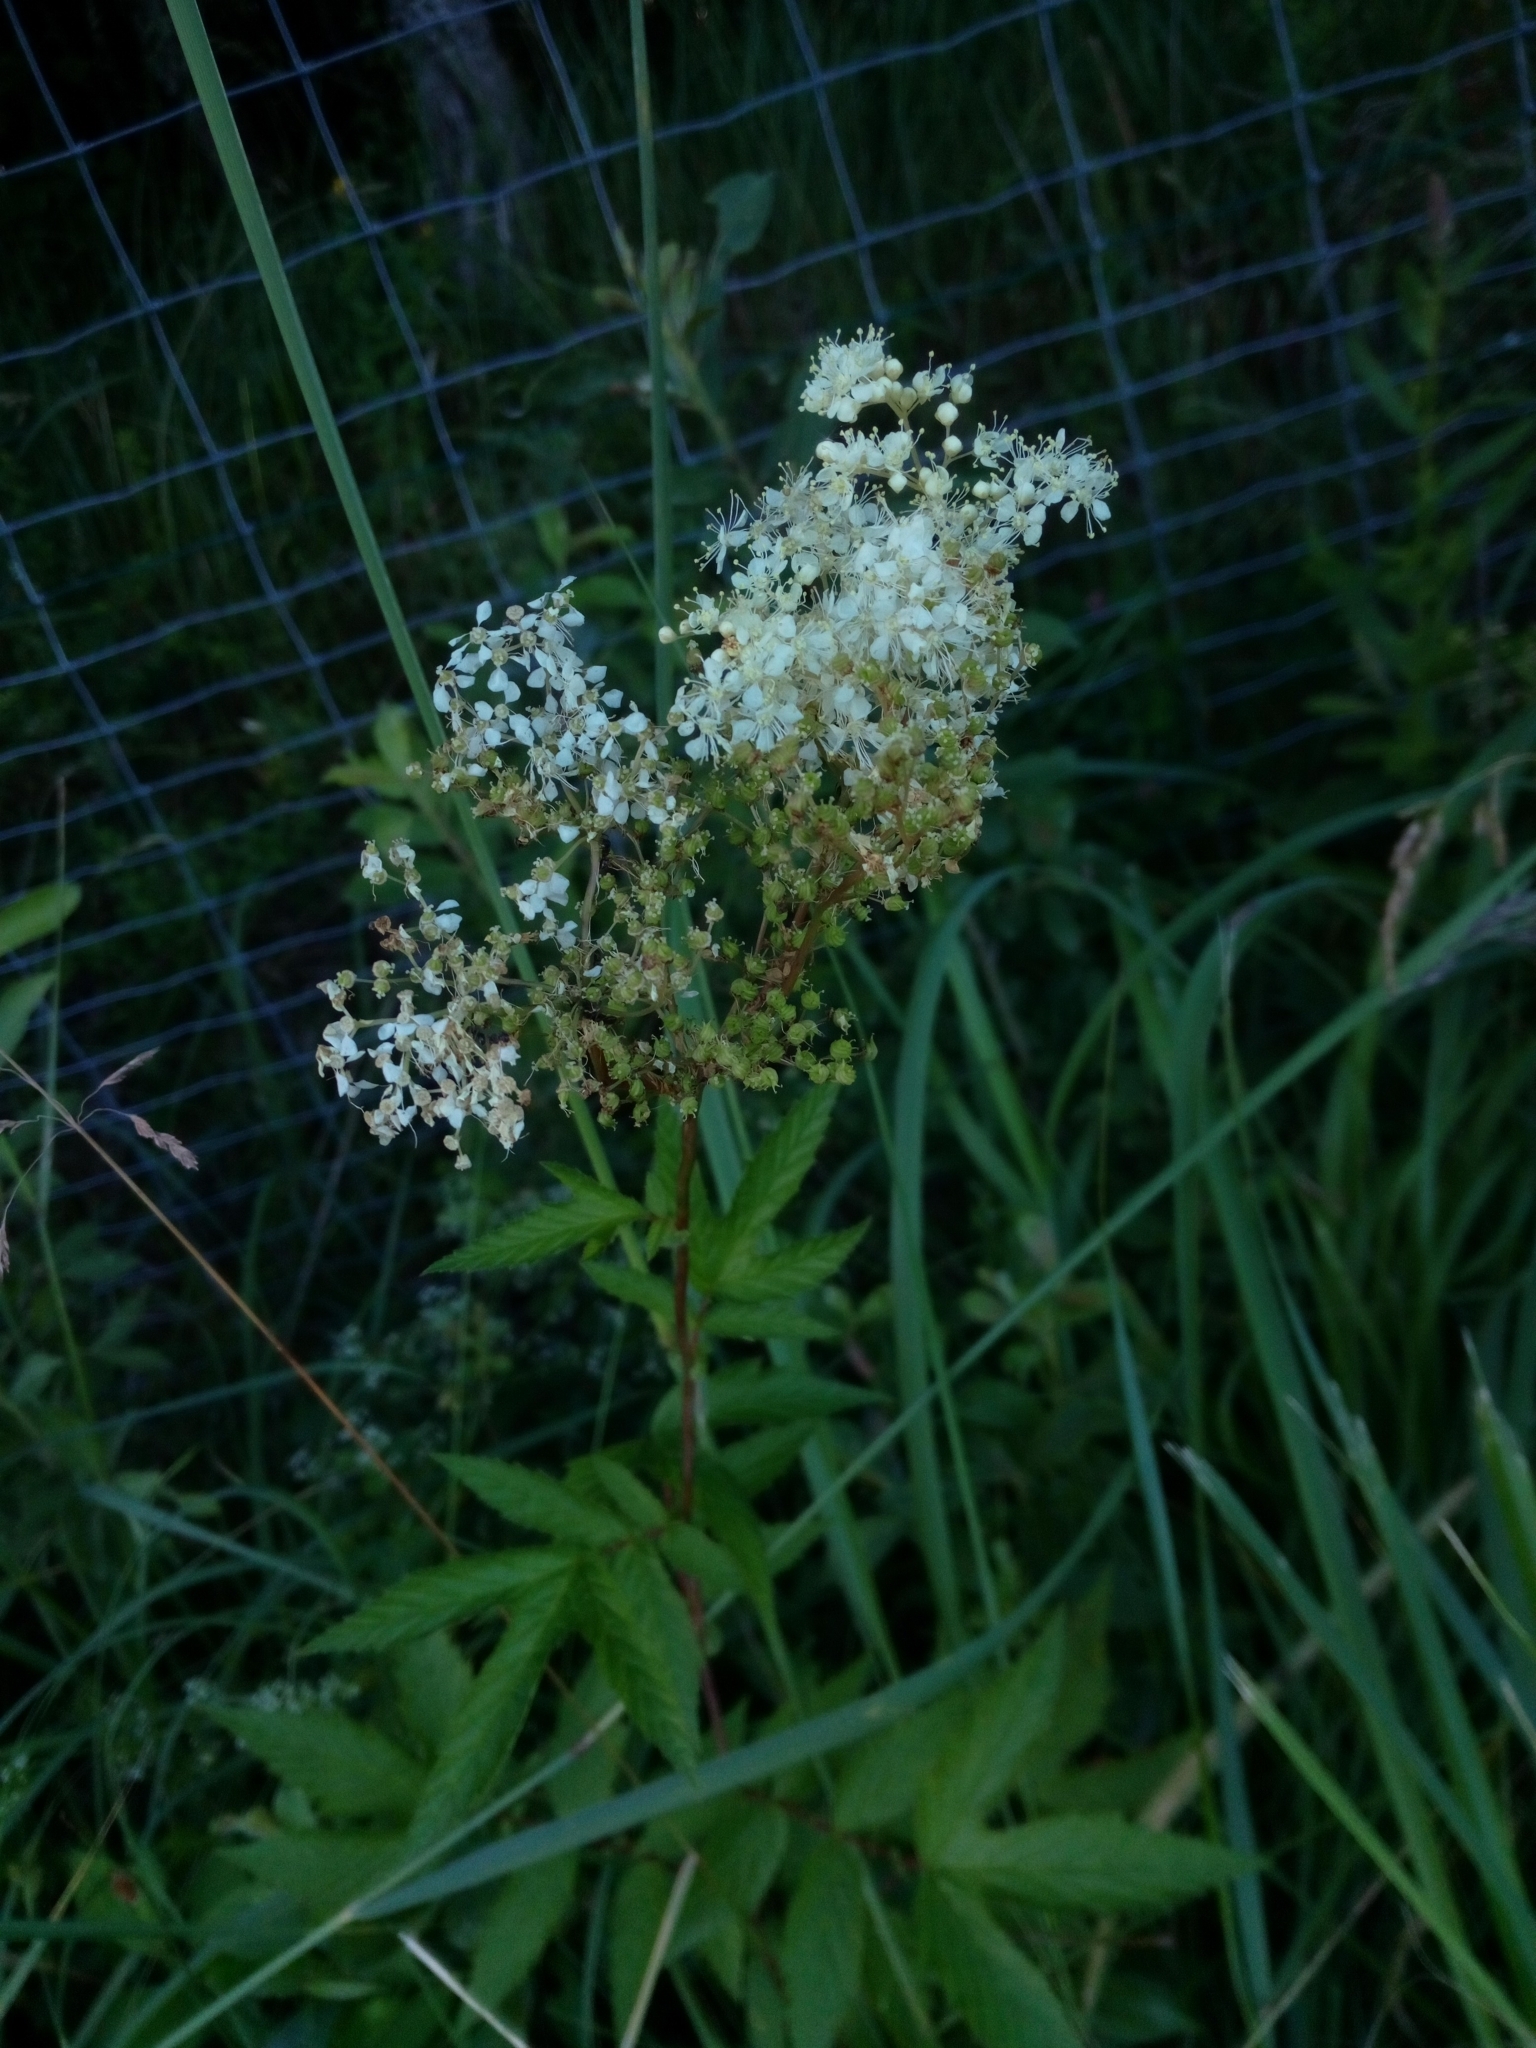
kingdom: Plantae
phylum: Tracheophyta
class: Magnoliopsida
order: Rosales
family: Rosaceae
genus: Filipendula
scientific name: Filipendula ulmaria
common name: Meadowsweet
